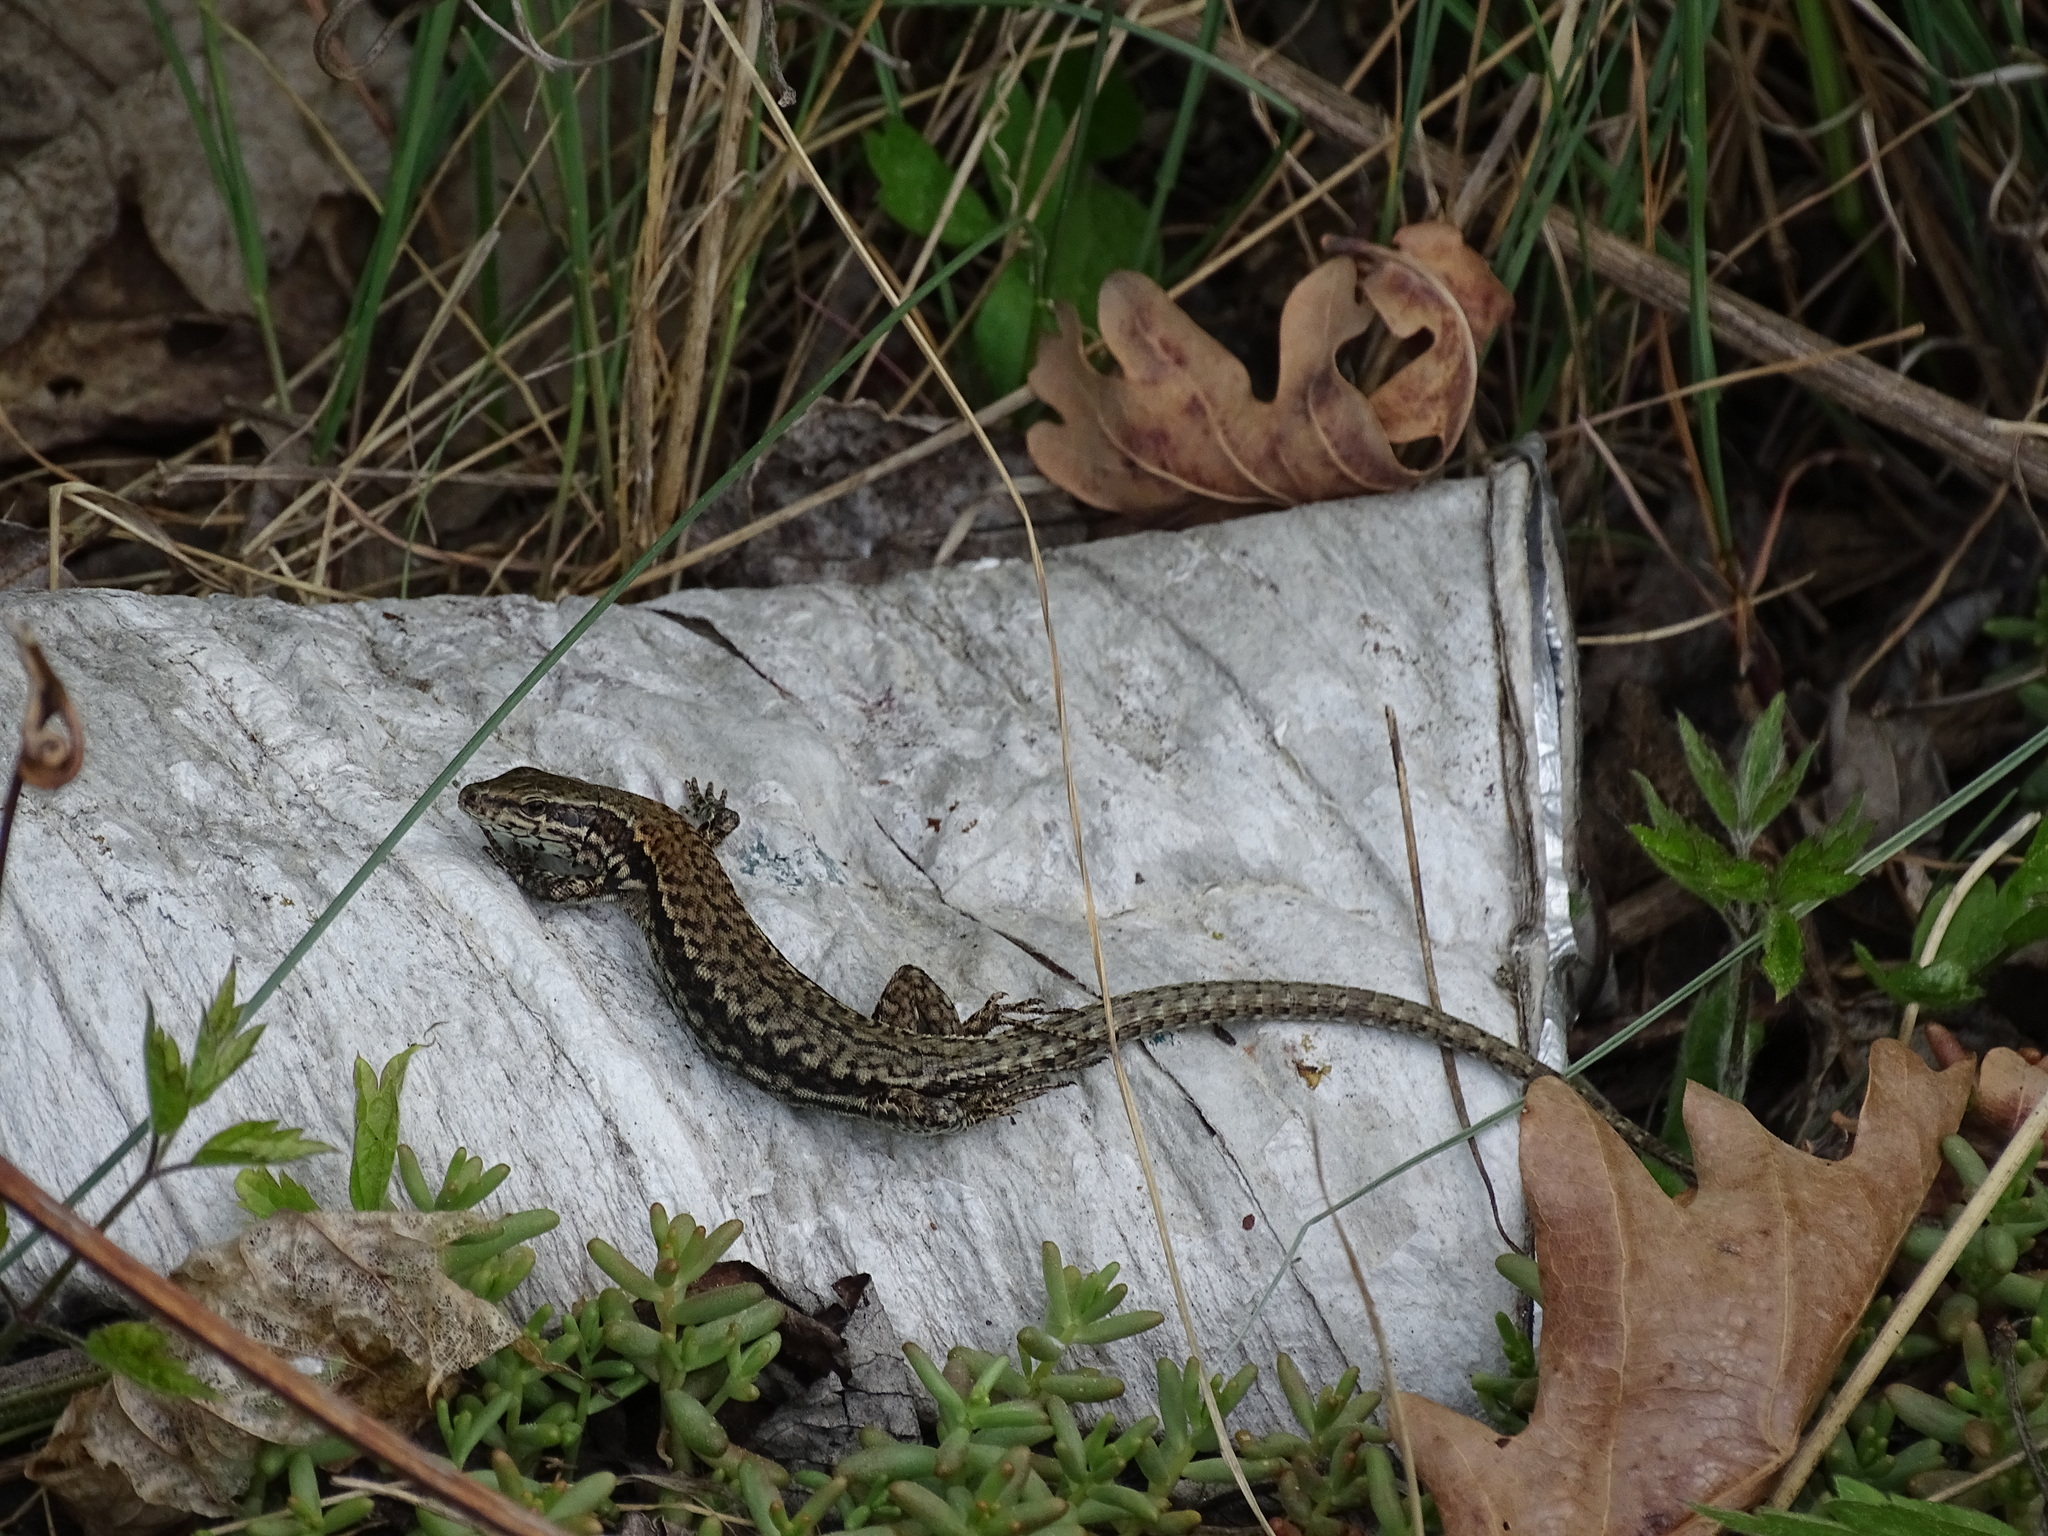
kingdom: Animalia
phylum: Chordata
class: Squamata
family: Lacertidae
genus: Podarcis
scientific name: Podarcis muralis
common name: Common wall lizard
